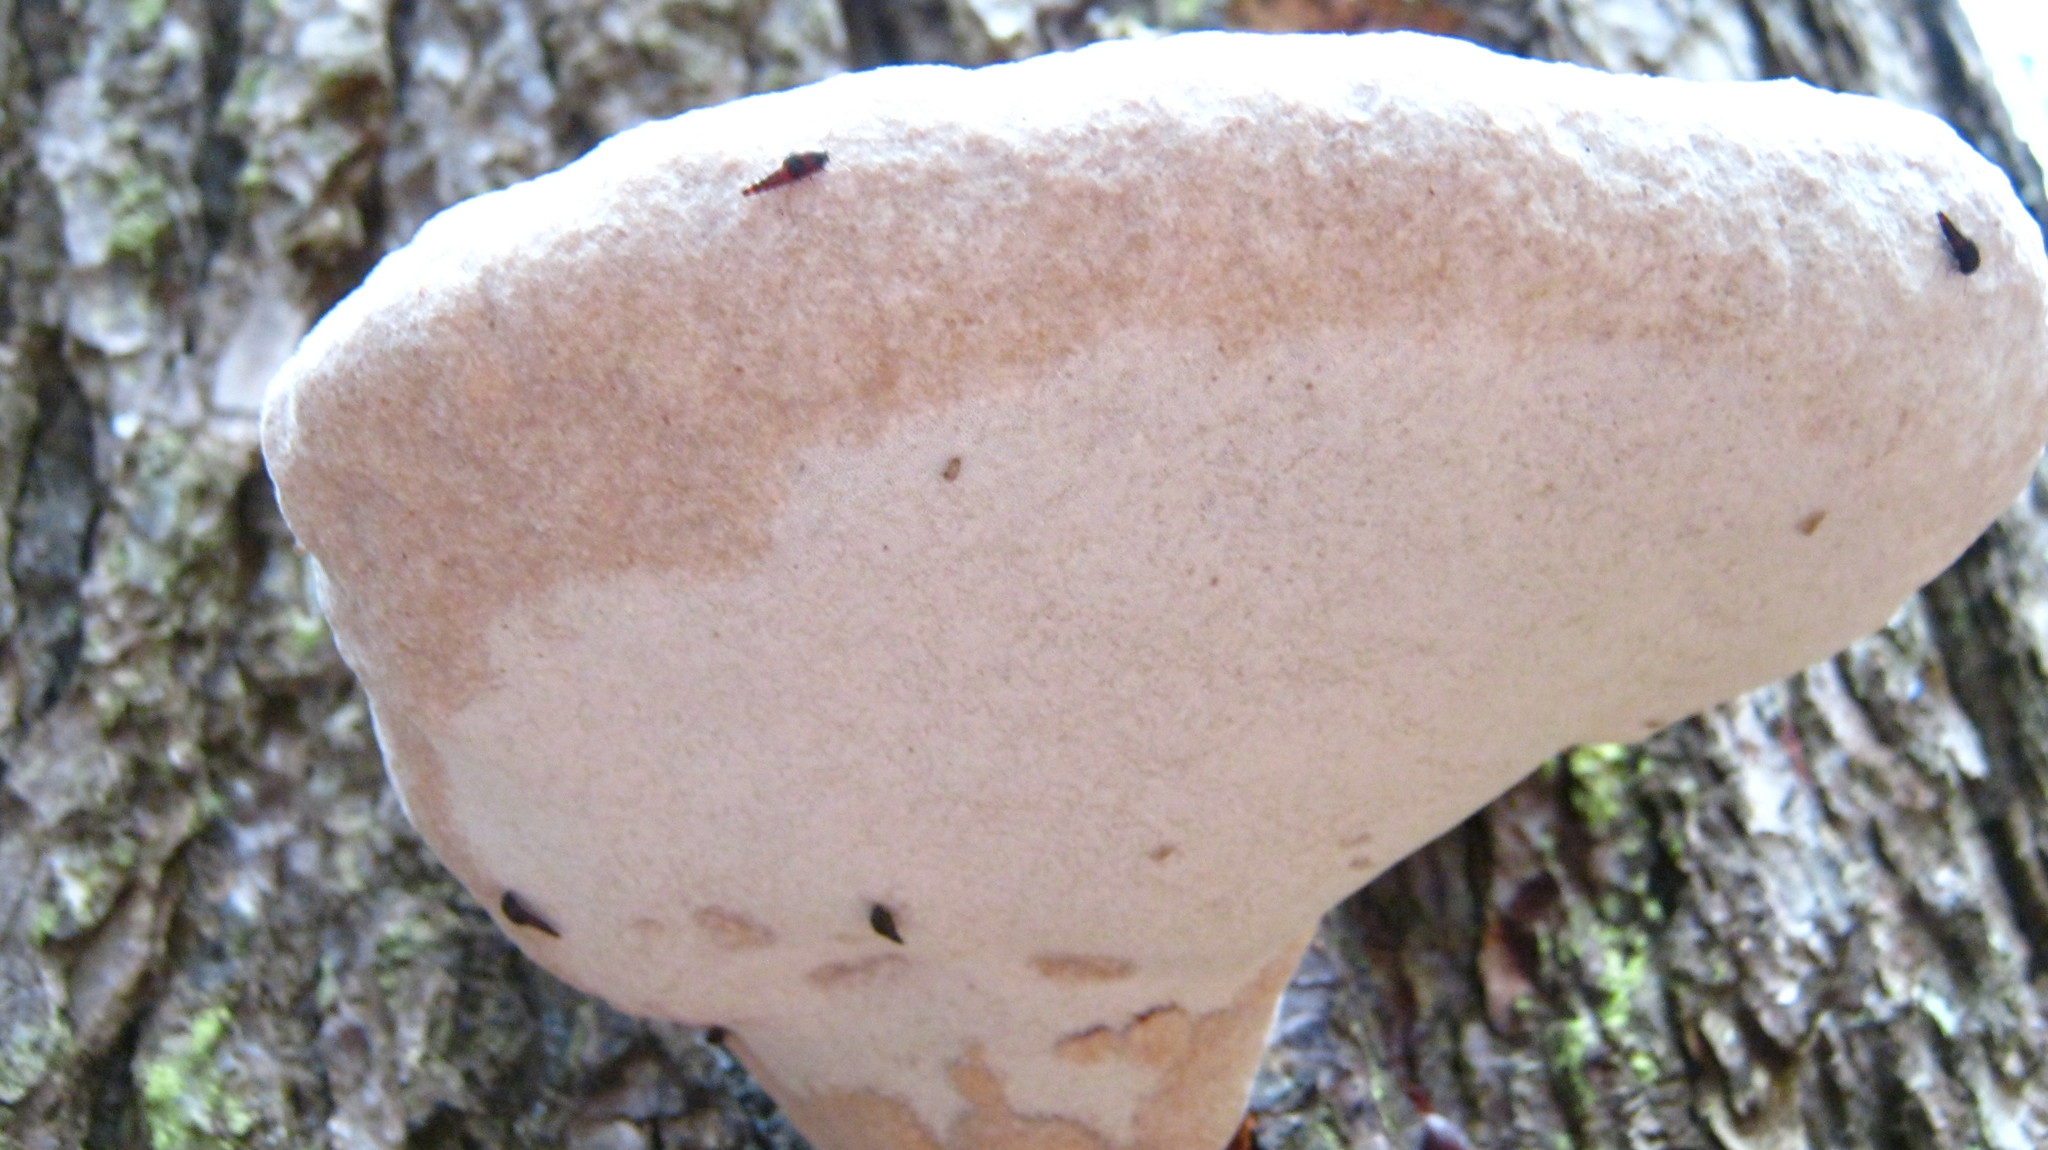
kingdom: Fungi
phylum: Basidiomycota
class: Agaricomycetes
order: Polyporales
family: Polyporaceae
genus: Ganoderma
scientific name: Ganoderma tsugae
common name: Hemlock varnish shelf
